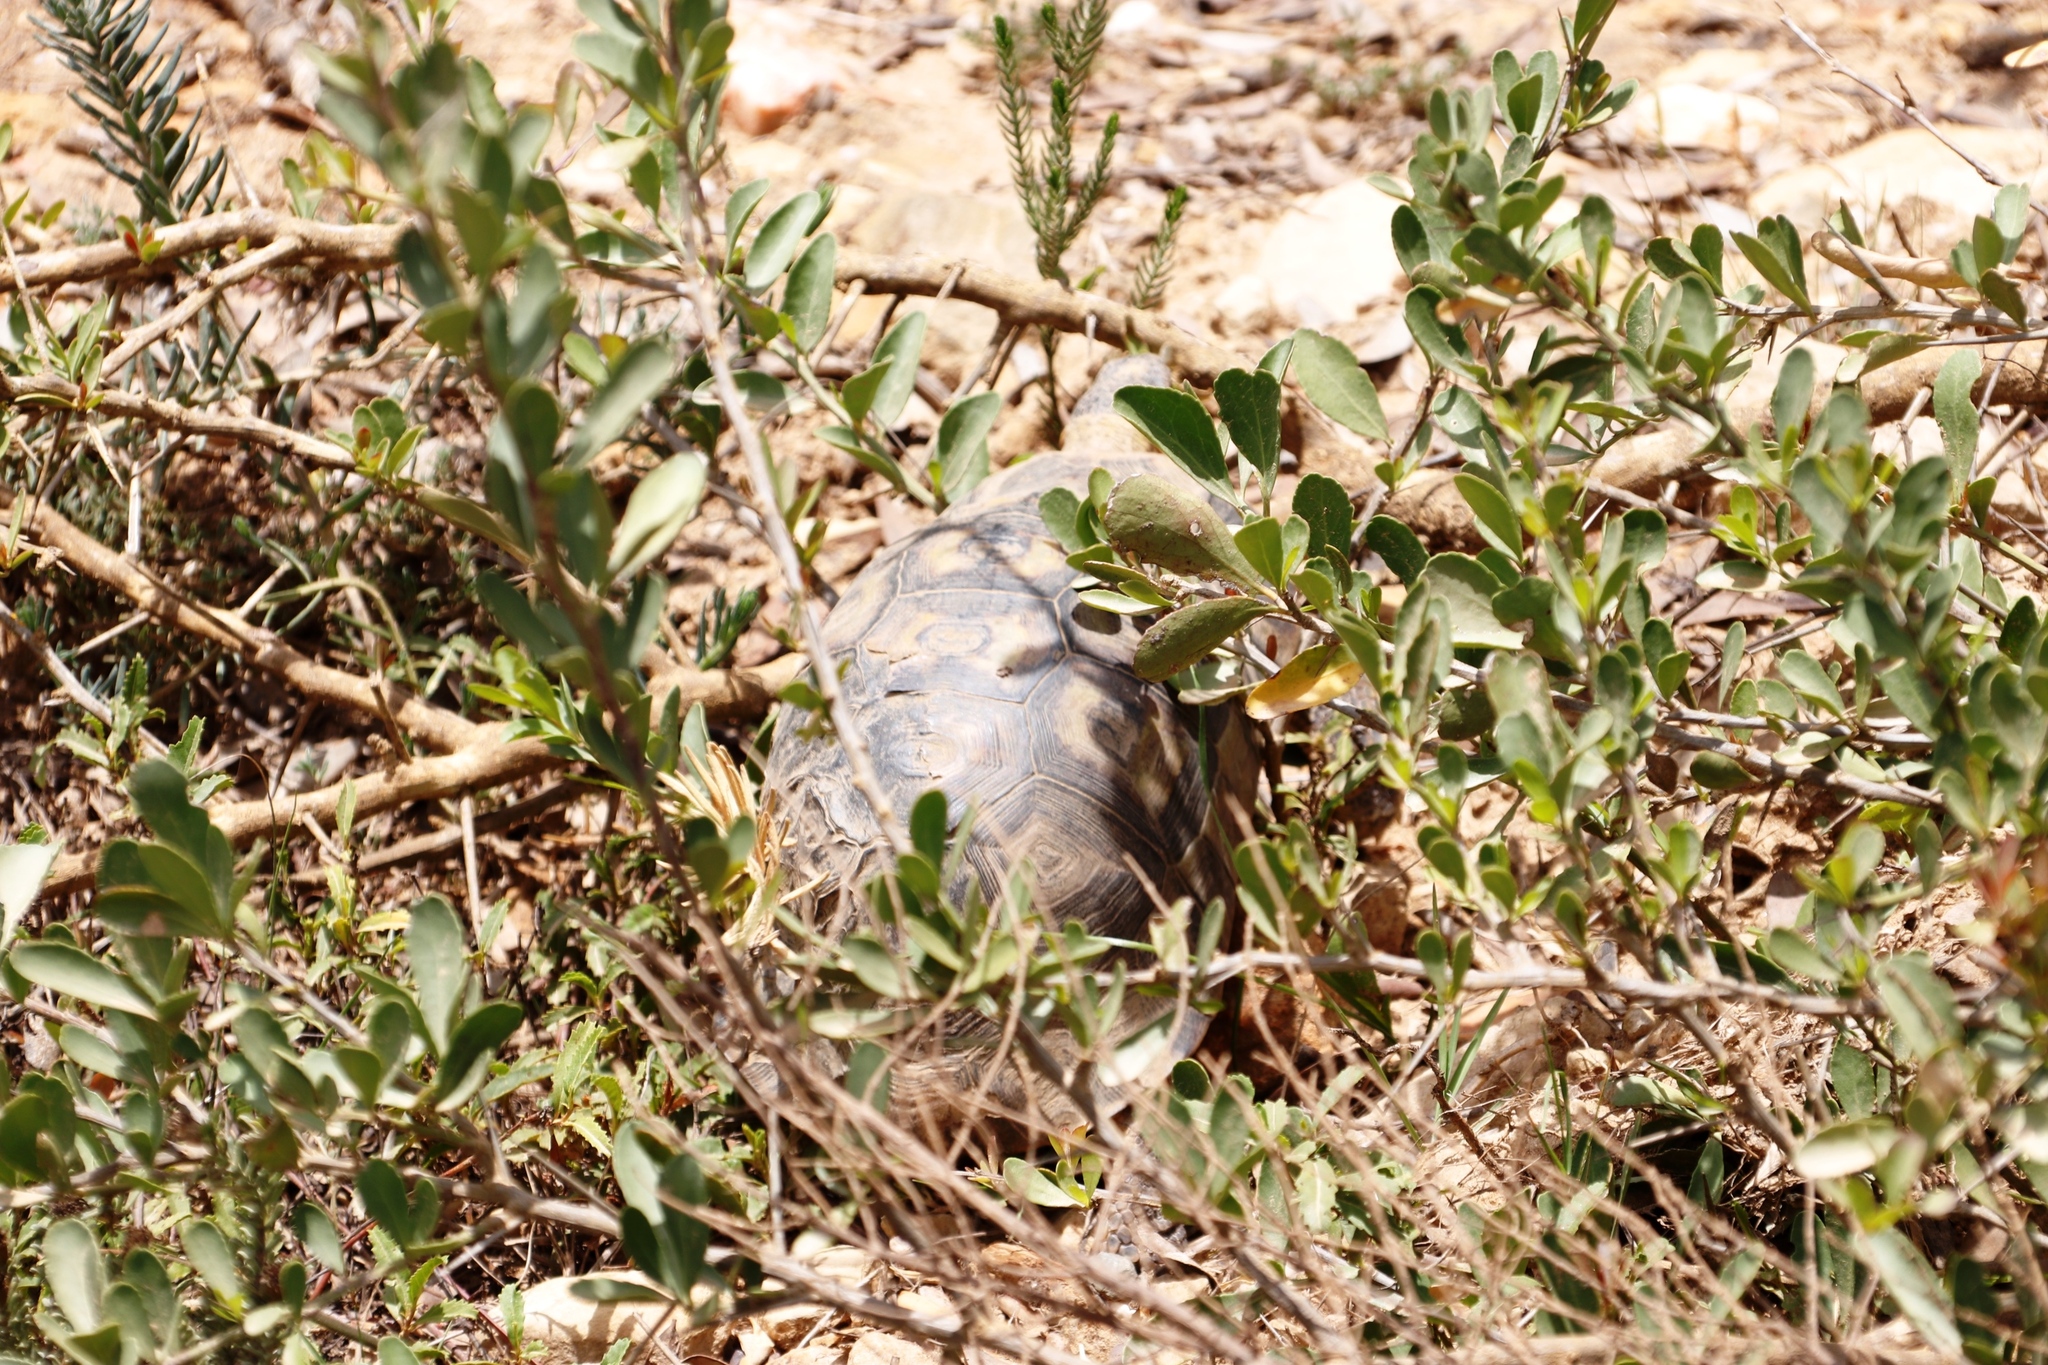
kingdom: Animalia
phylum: Chordata
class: Testudines
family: Testudinidae
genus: Chersina
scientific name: Chersina angulata
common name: South african bowsprit tortoise
